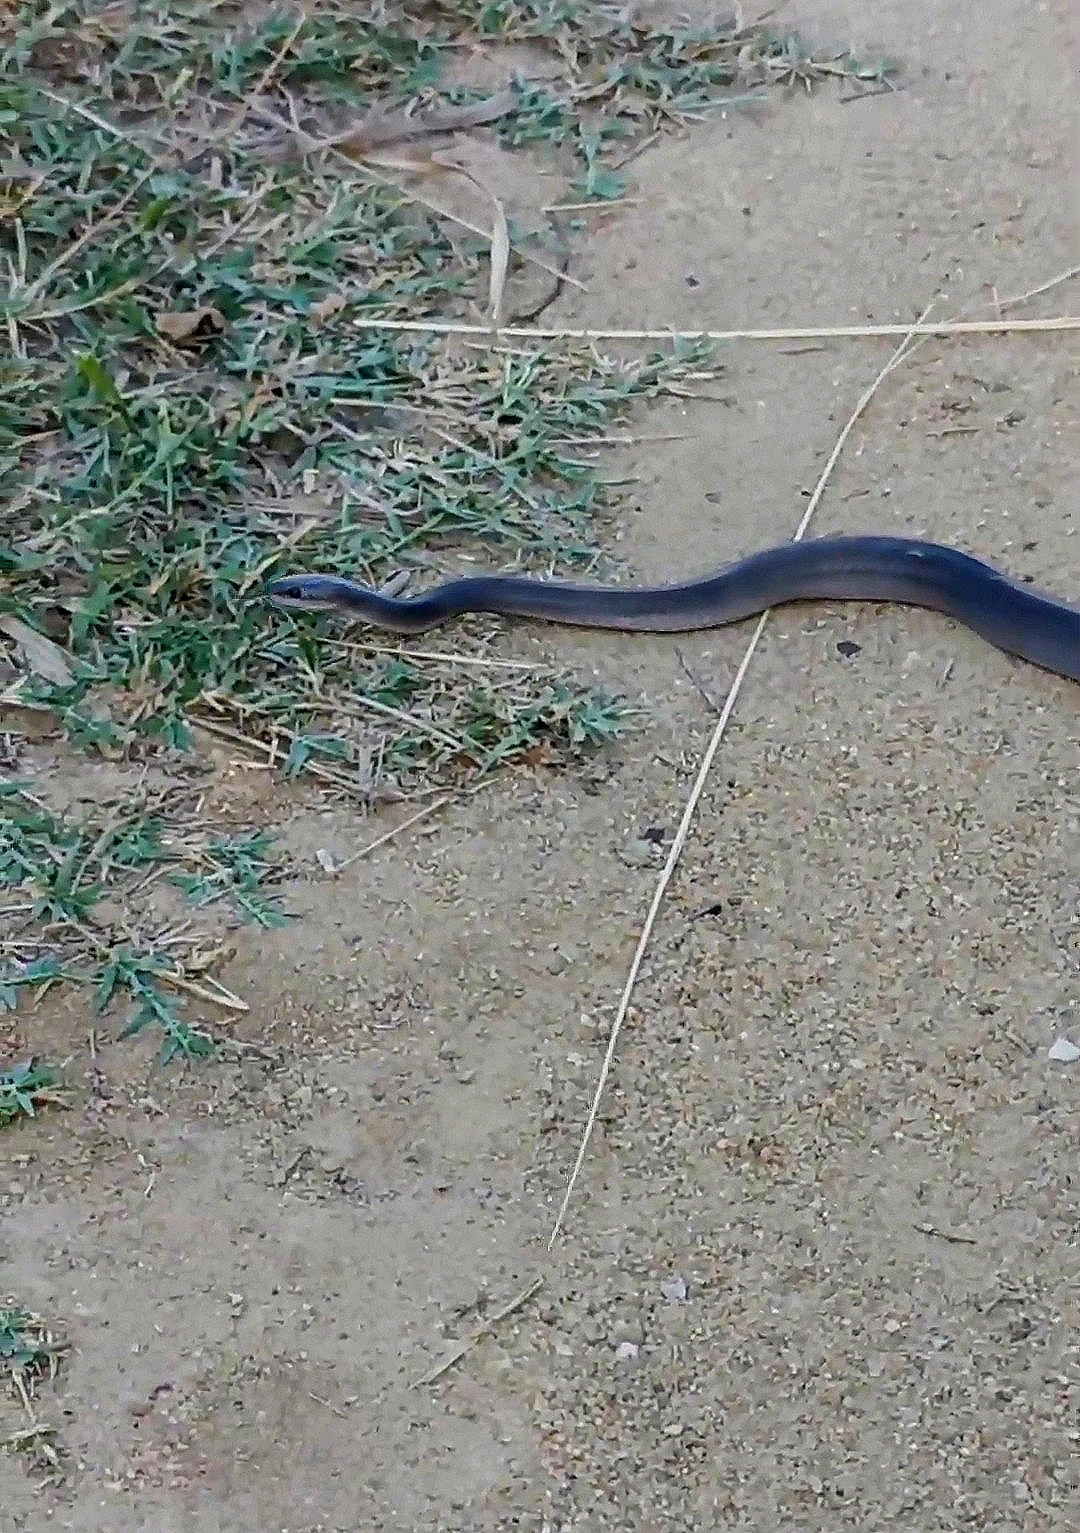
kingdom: Animalia
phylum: Chordata
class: Squamata
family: Colubridae
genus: Oxyrhopus
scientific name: Oxyrhopus petolarius
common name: Forest flame snake
